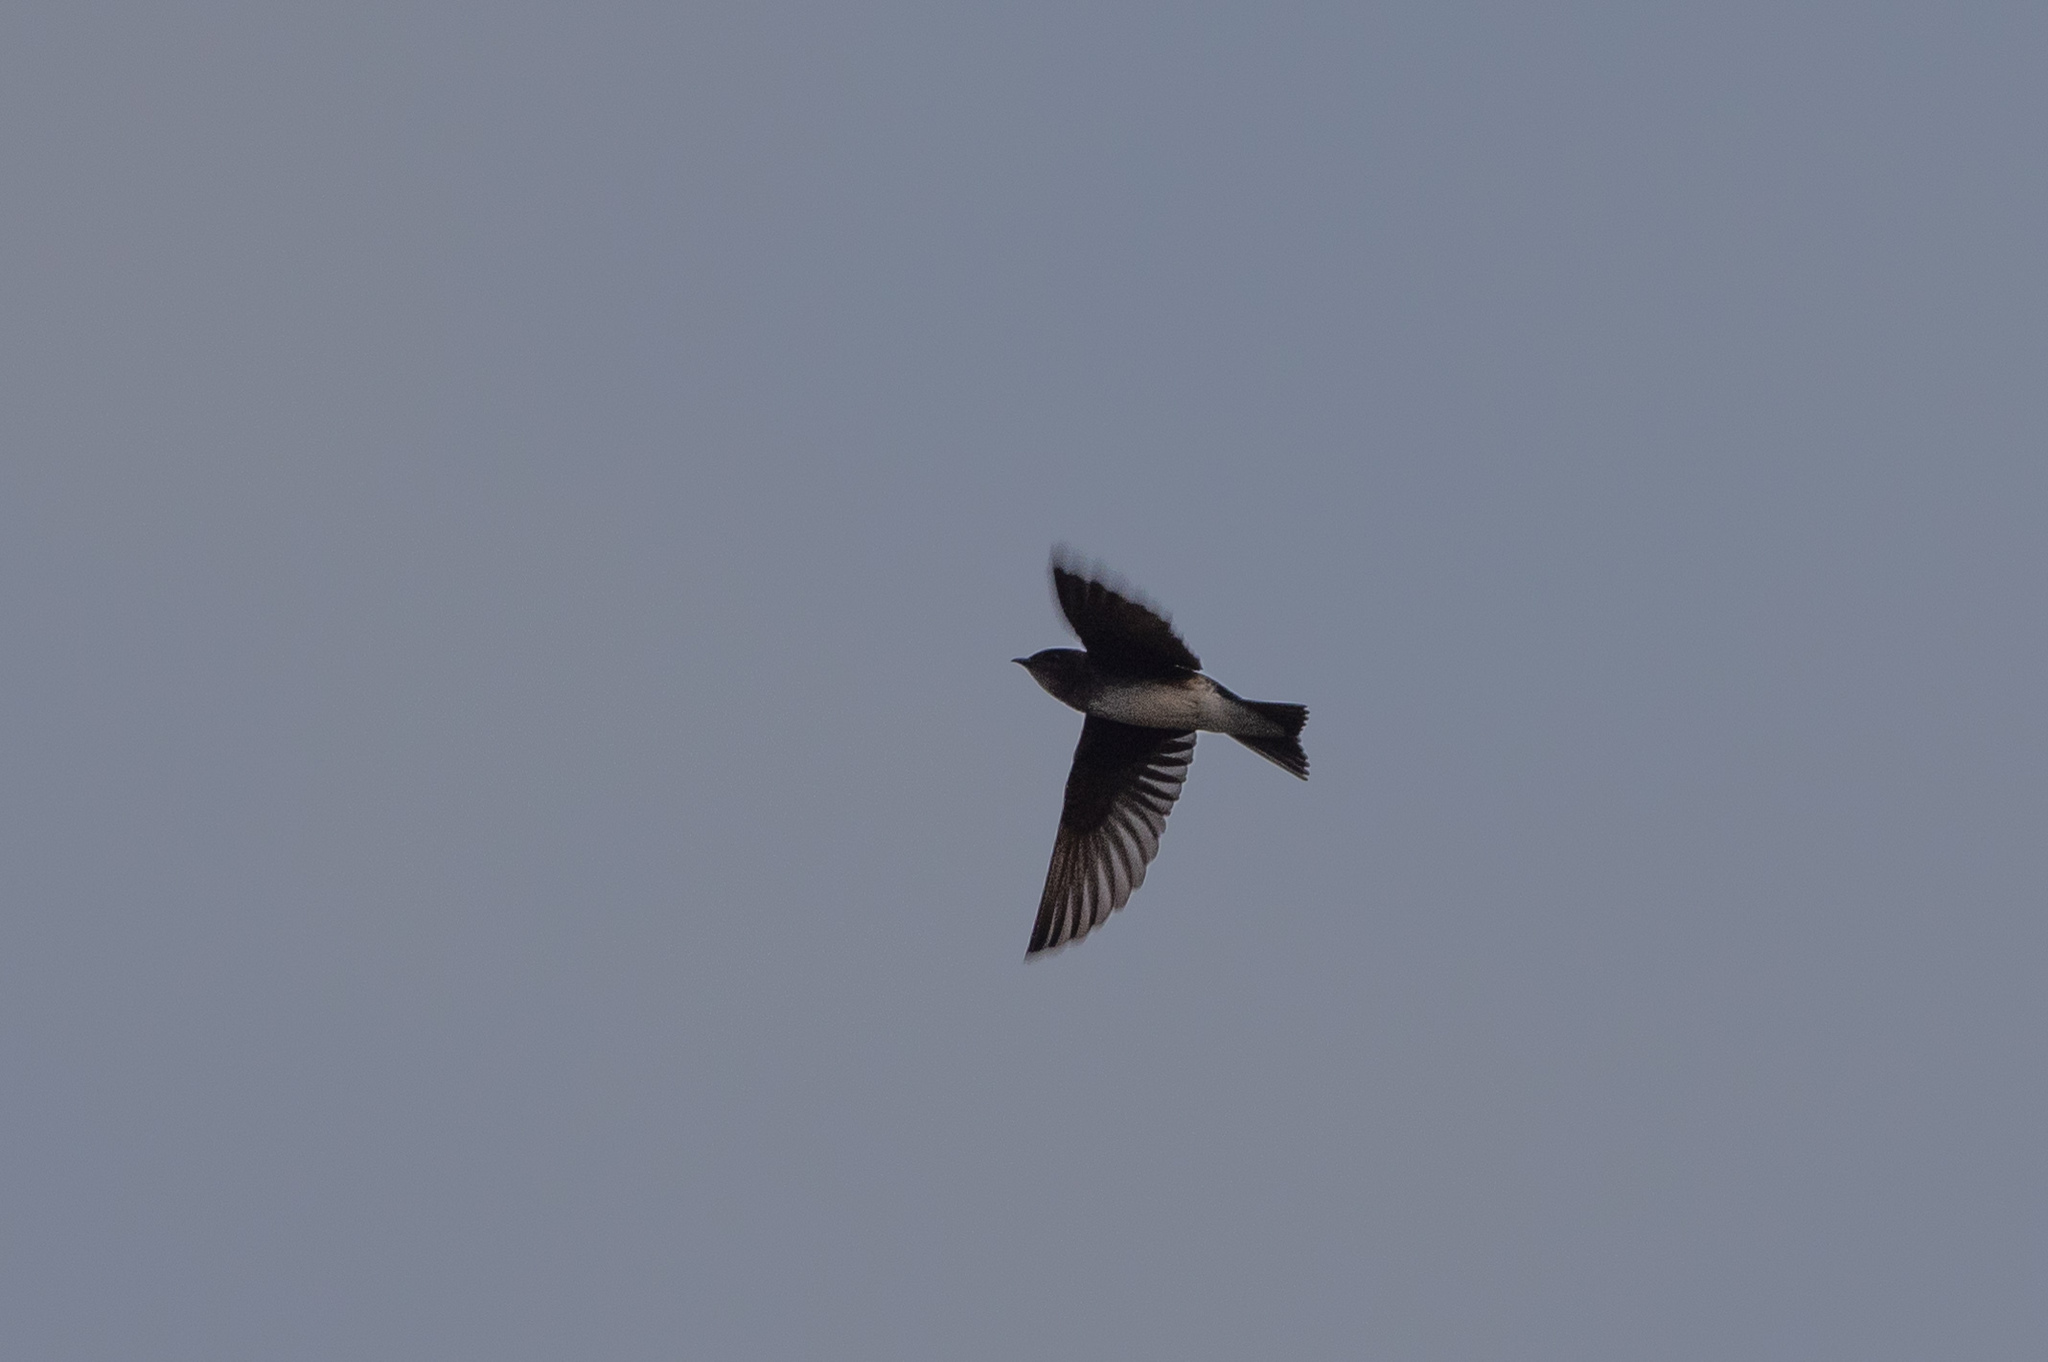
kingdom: Animalia
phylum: Chordata
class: Aves
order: Passeriformes
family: Hirundinidae
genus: Progne
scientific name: Progne chalybea
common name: Grey-breasted martin
